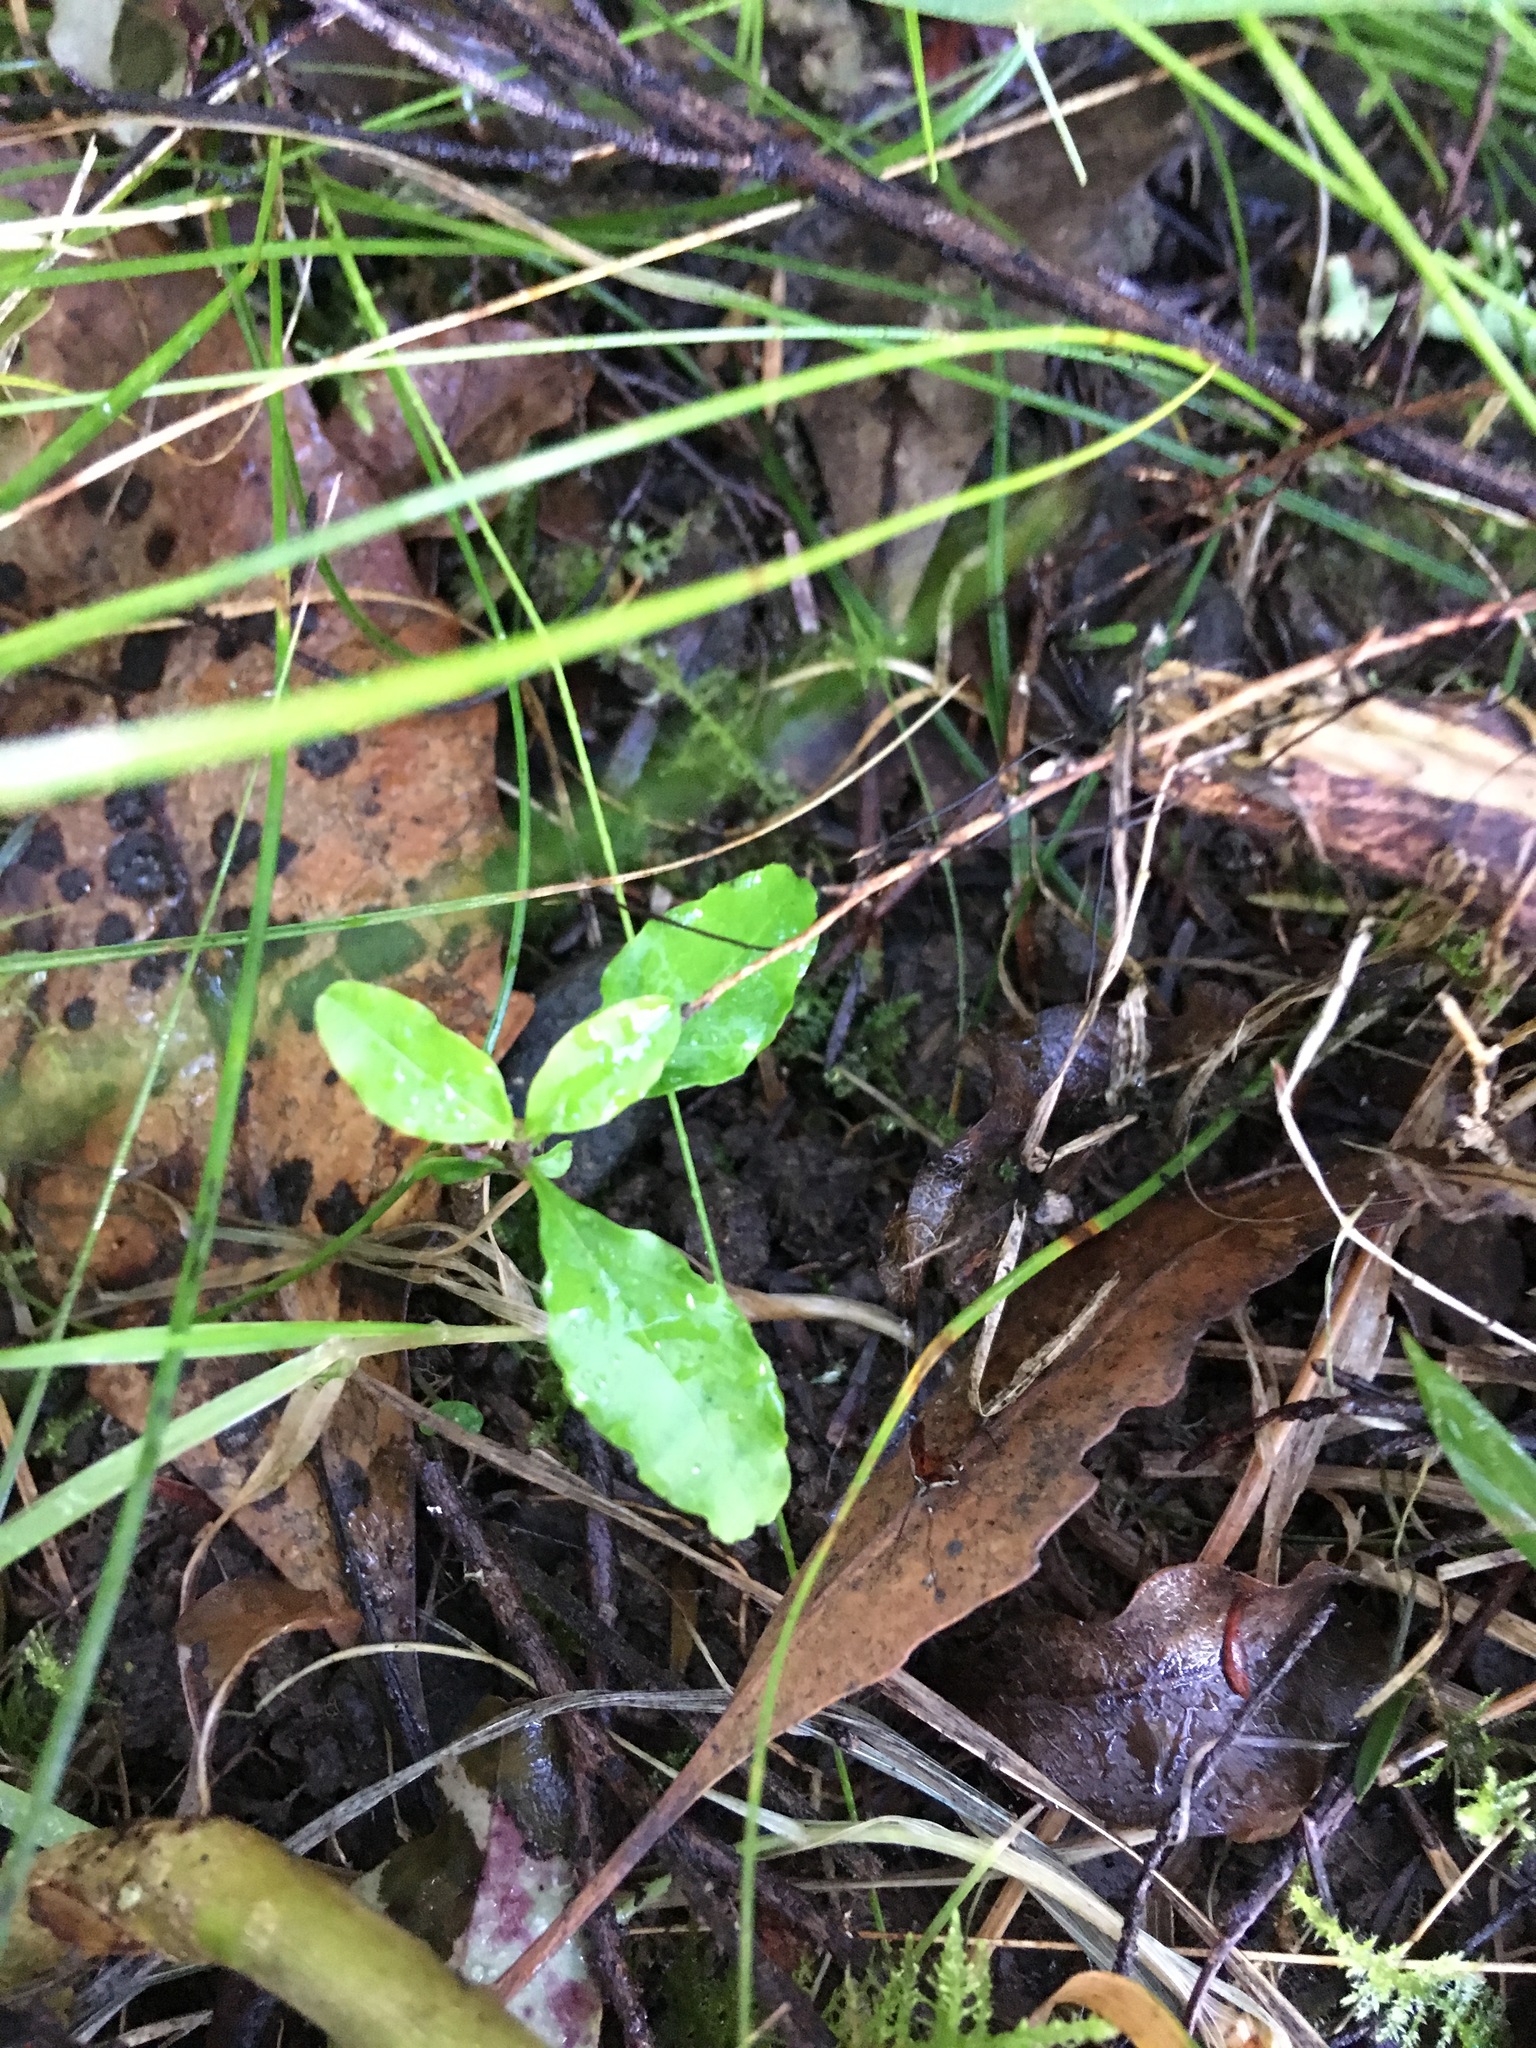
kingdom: Plantae
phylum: Tracheophyta
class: Magnoliopsida
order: Lamiales
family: Oleaceae
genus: Ligustrum
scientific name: Ligustrum sinense
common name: Chinese privet
